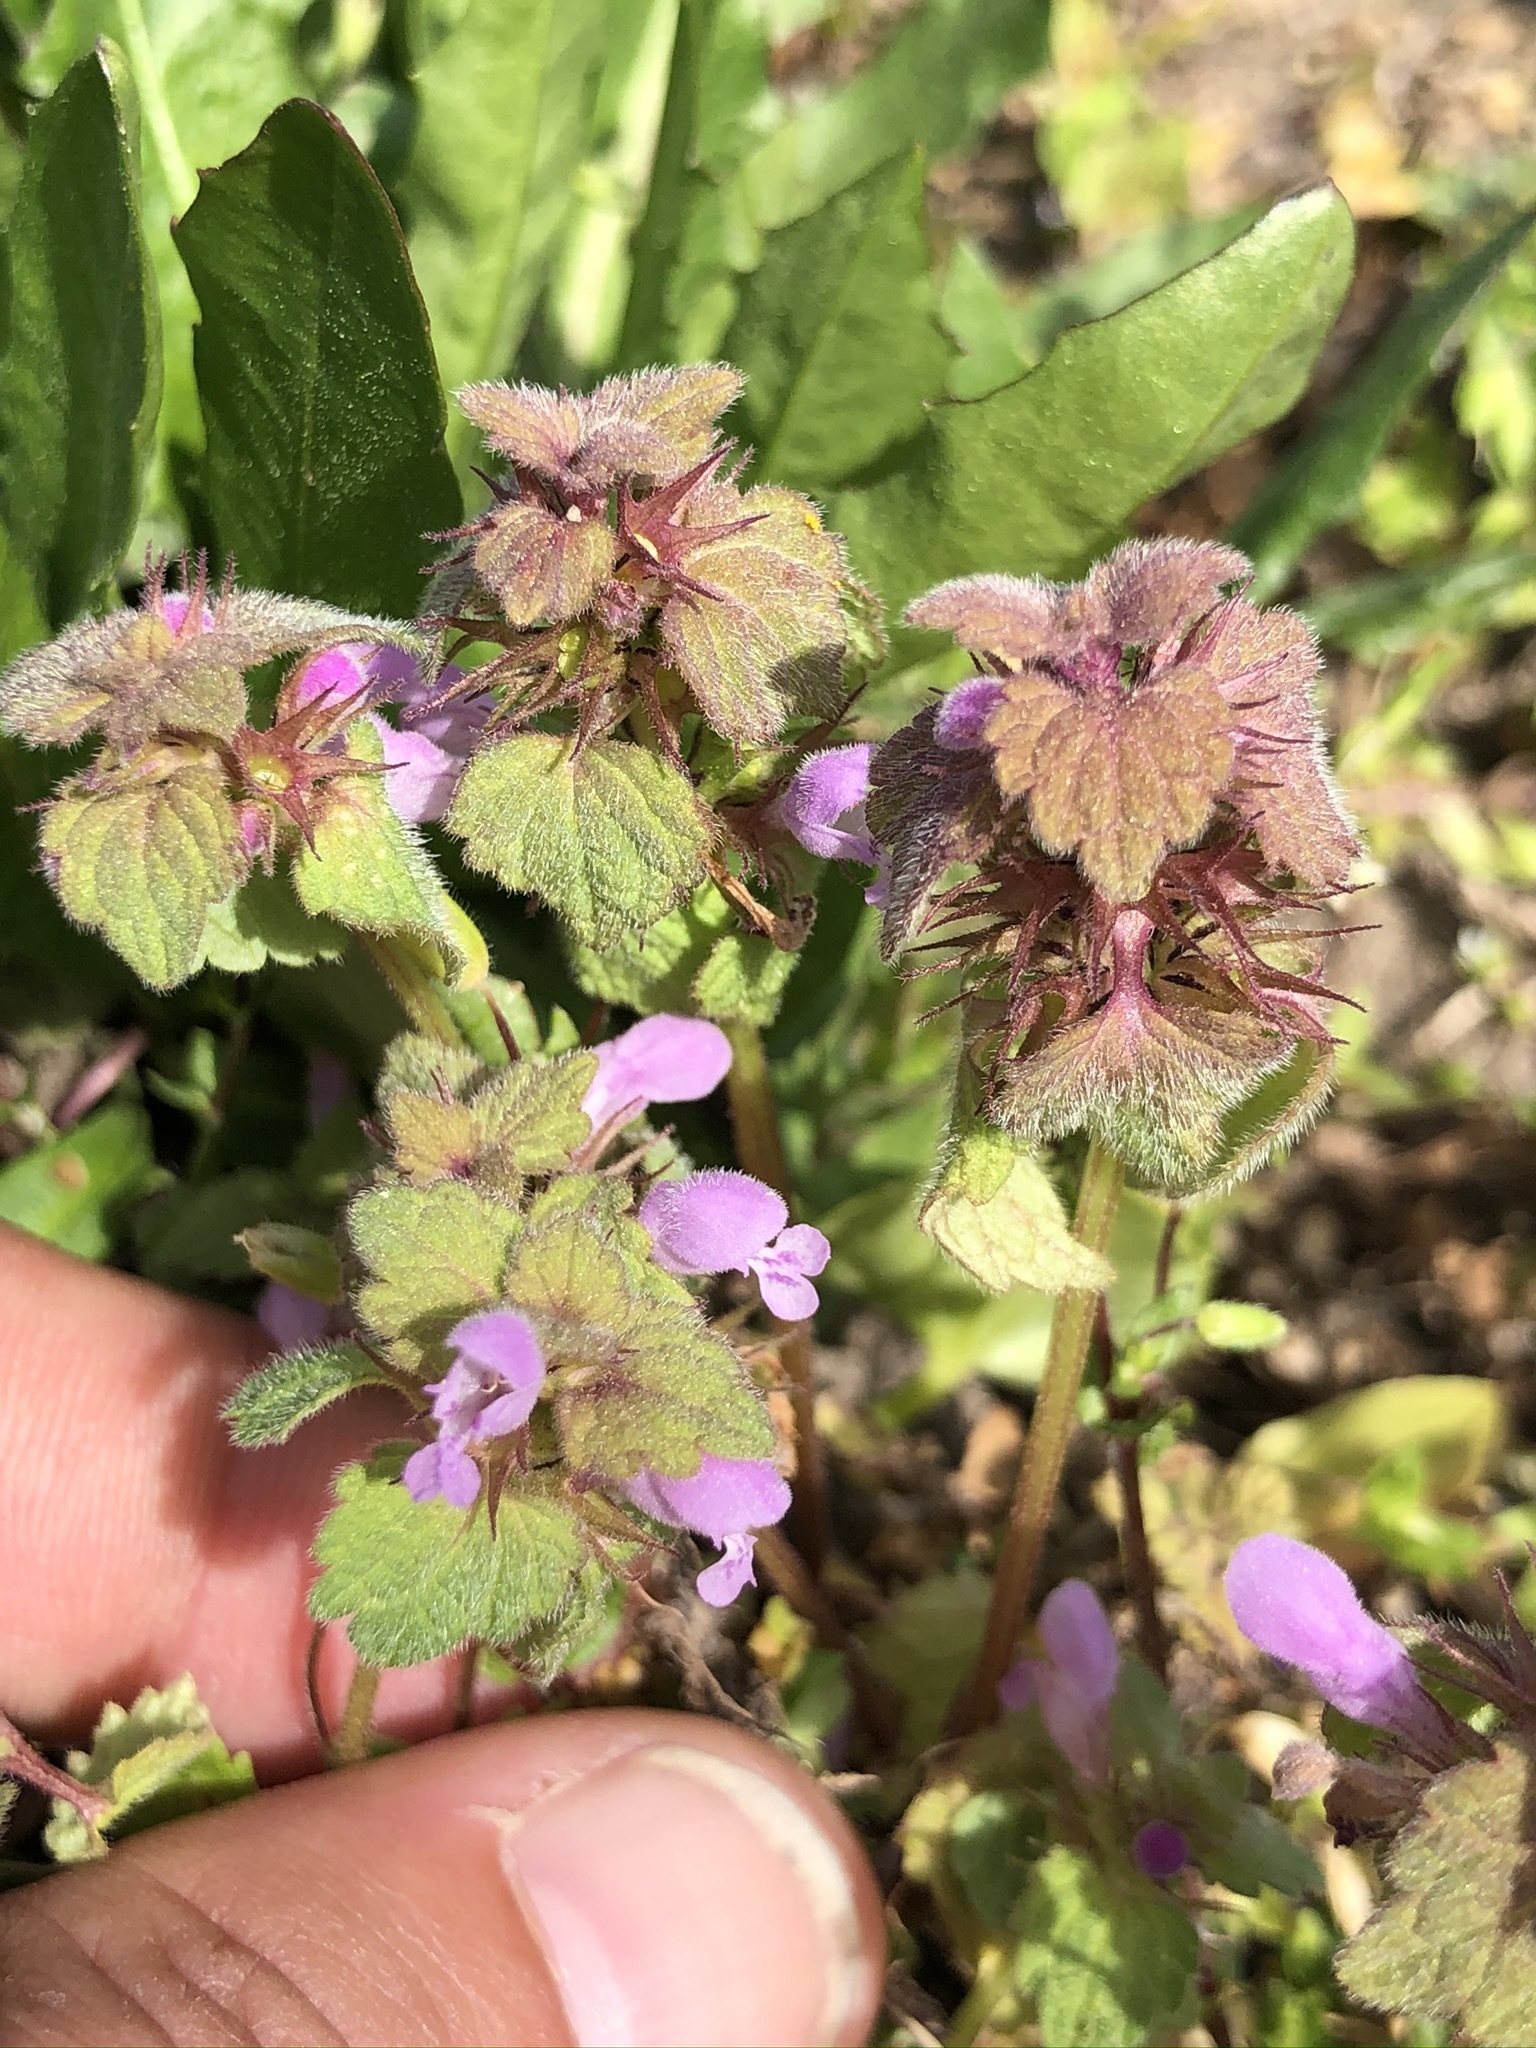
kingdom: Plantae
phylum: Tracheophyta
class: Magnoliopsida
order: Lamiales
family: Lamiaceae
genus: Lamium
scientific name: Lamium purpureum
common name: Red dead-nettle
